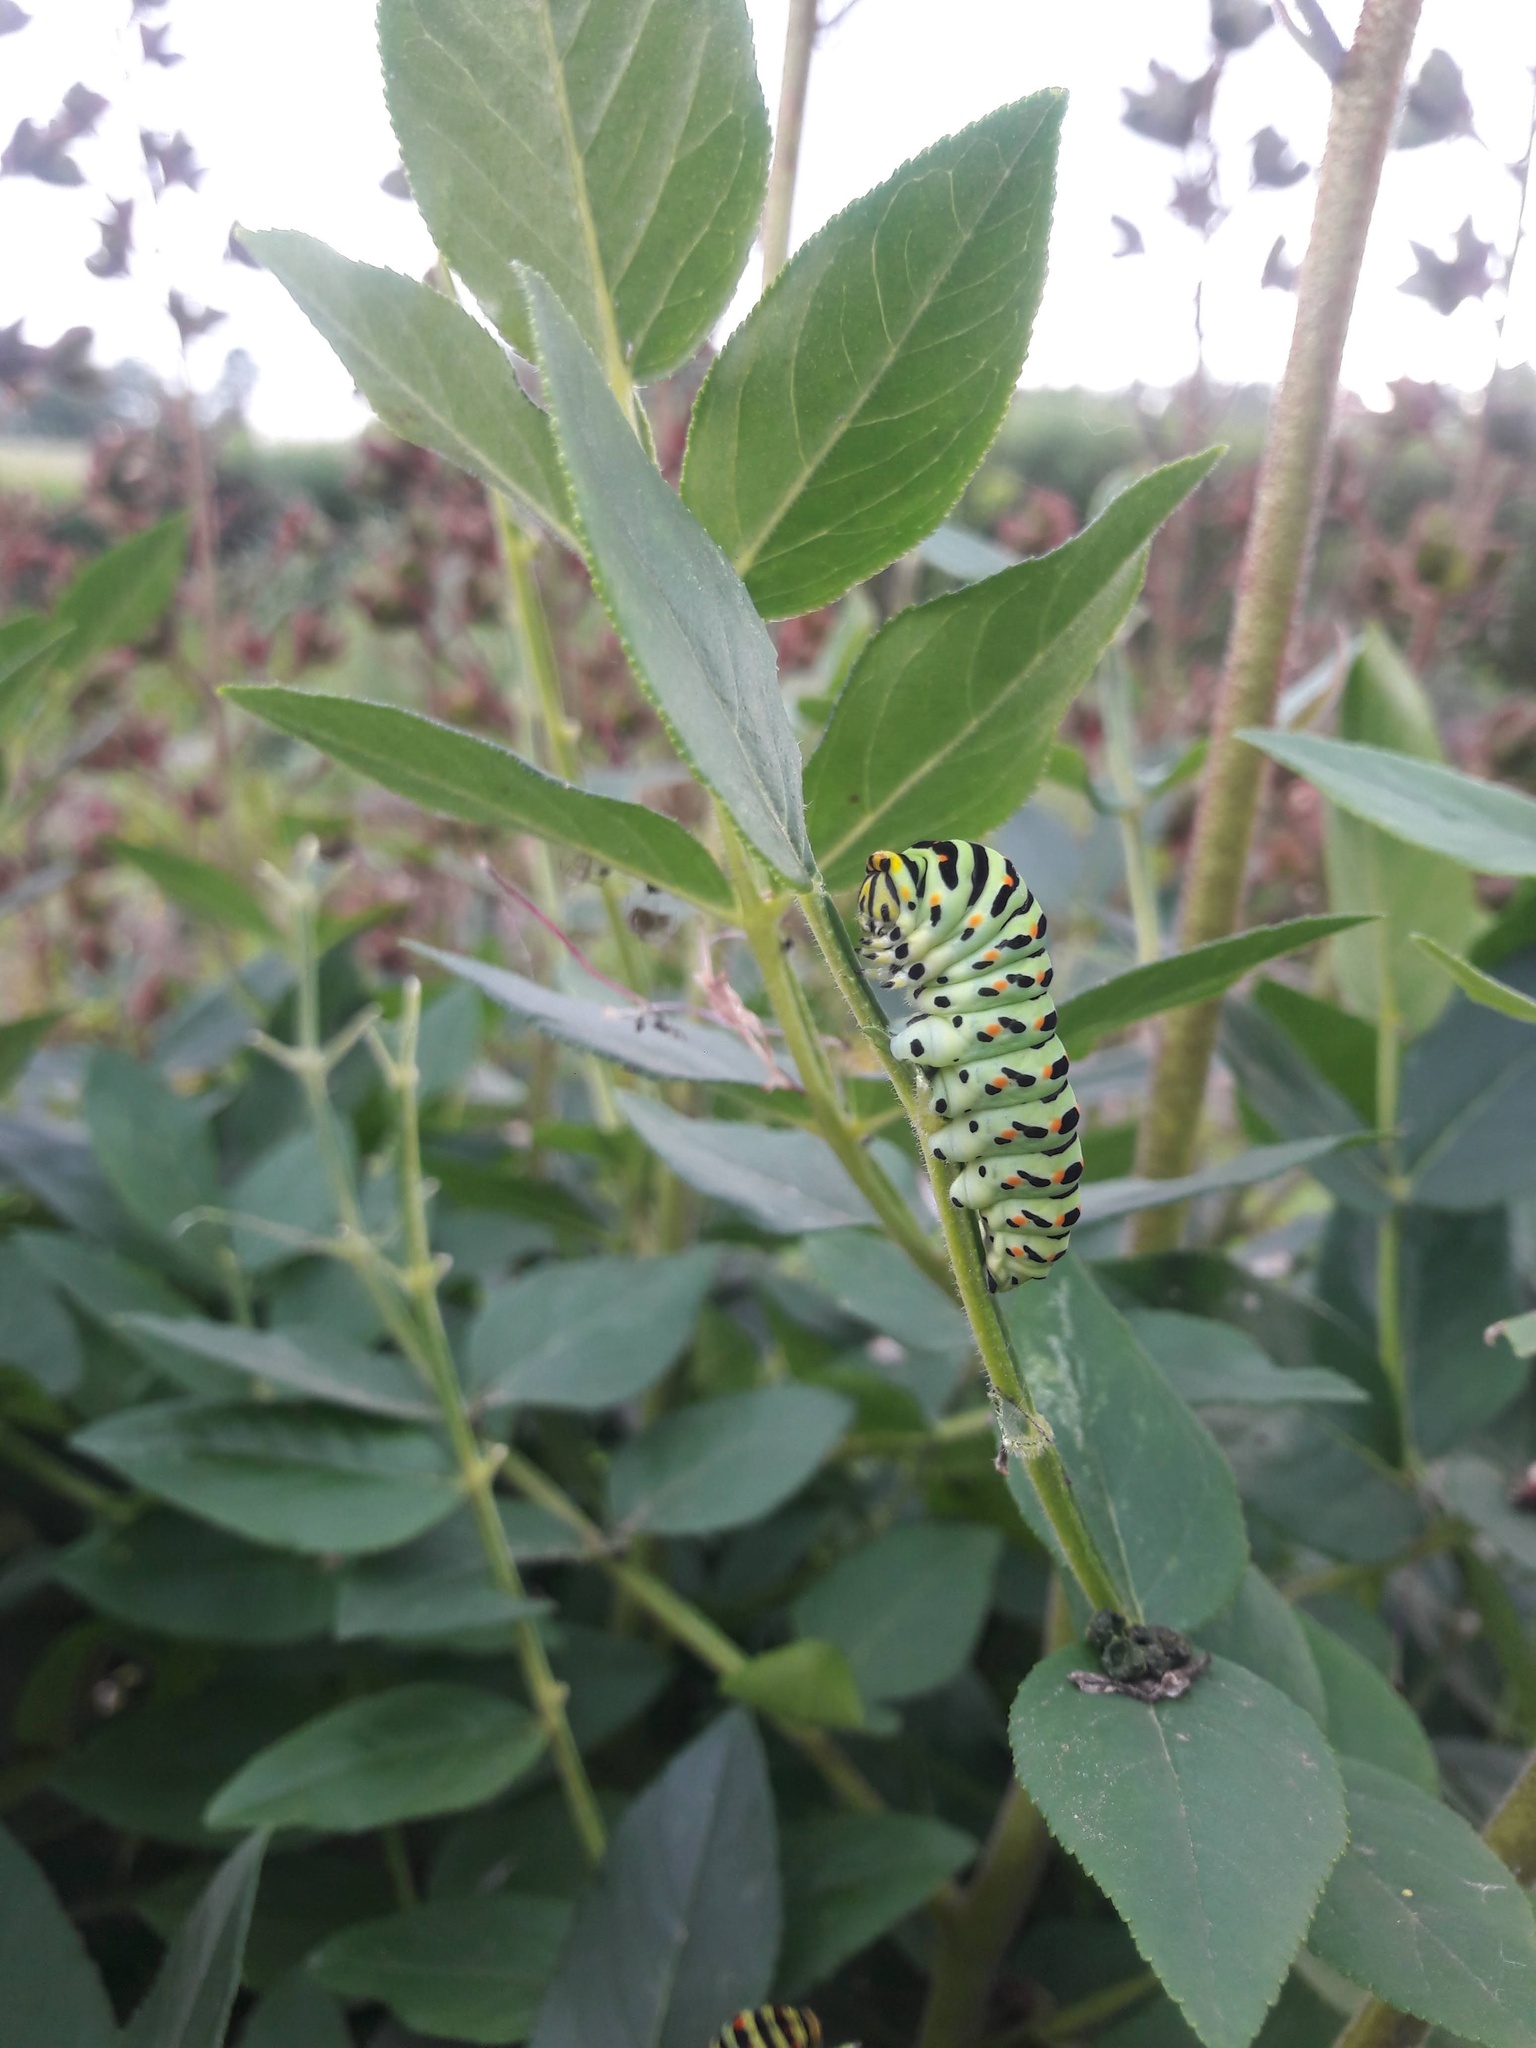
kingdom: Animalia
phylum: Arthropoda
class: Insecta
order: Lepidoptera
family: Papilionidae
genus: Papilio
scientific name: Papilio machaon
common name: Swallowtail
